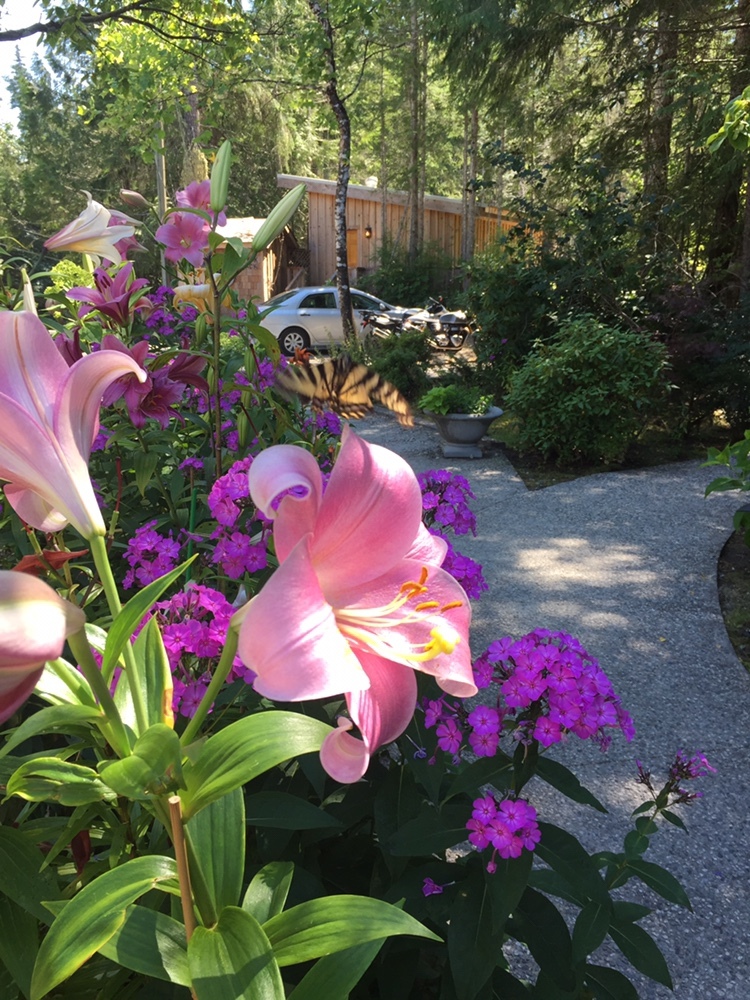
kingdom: Animalia
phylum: Arthropoda
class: Insecta
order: Lepidoptera
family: Papilionidae
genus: Papilio
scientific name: Papilio rutulus
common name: Western tiger swallowtail
